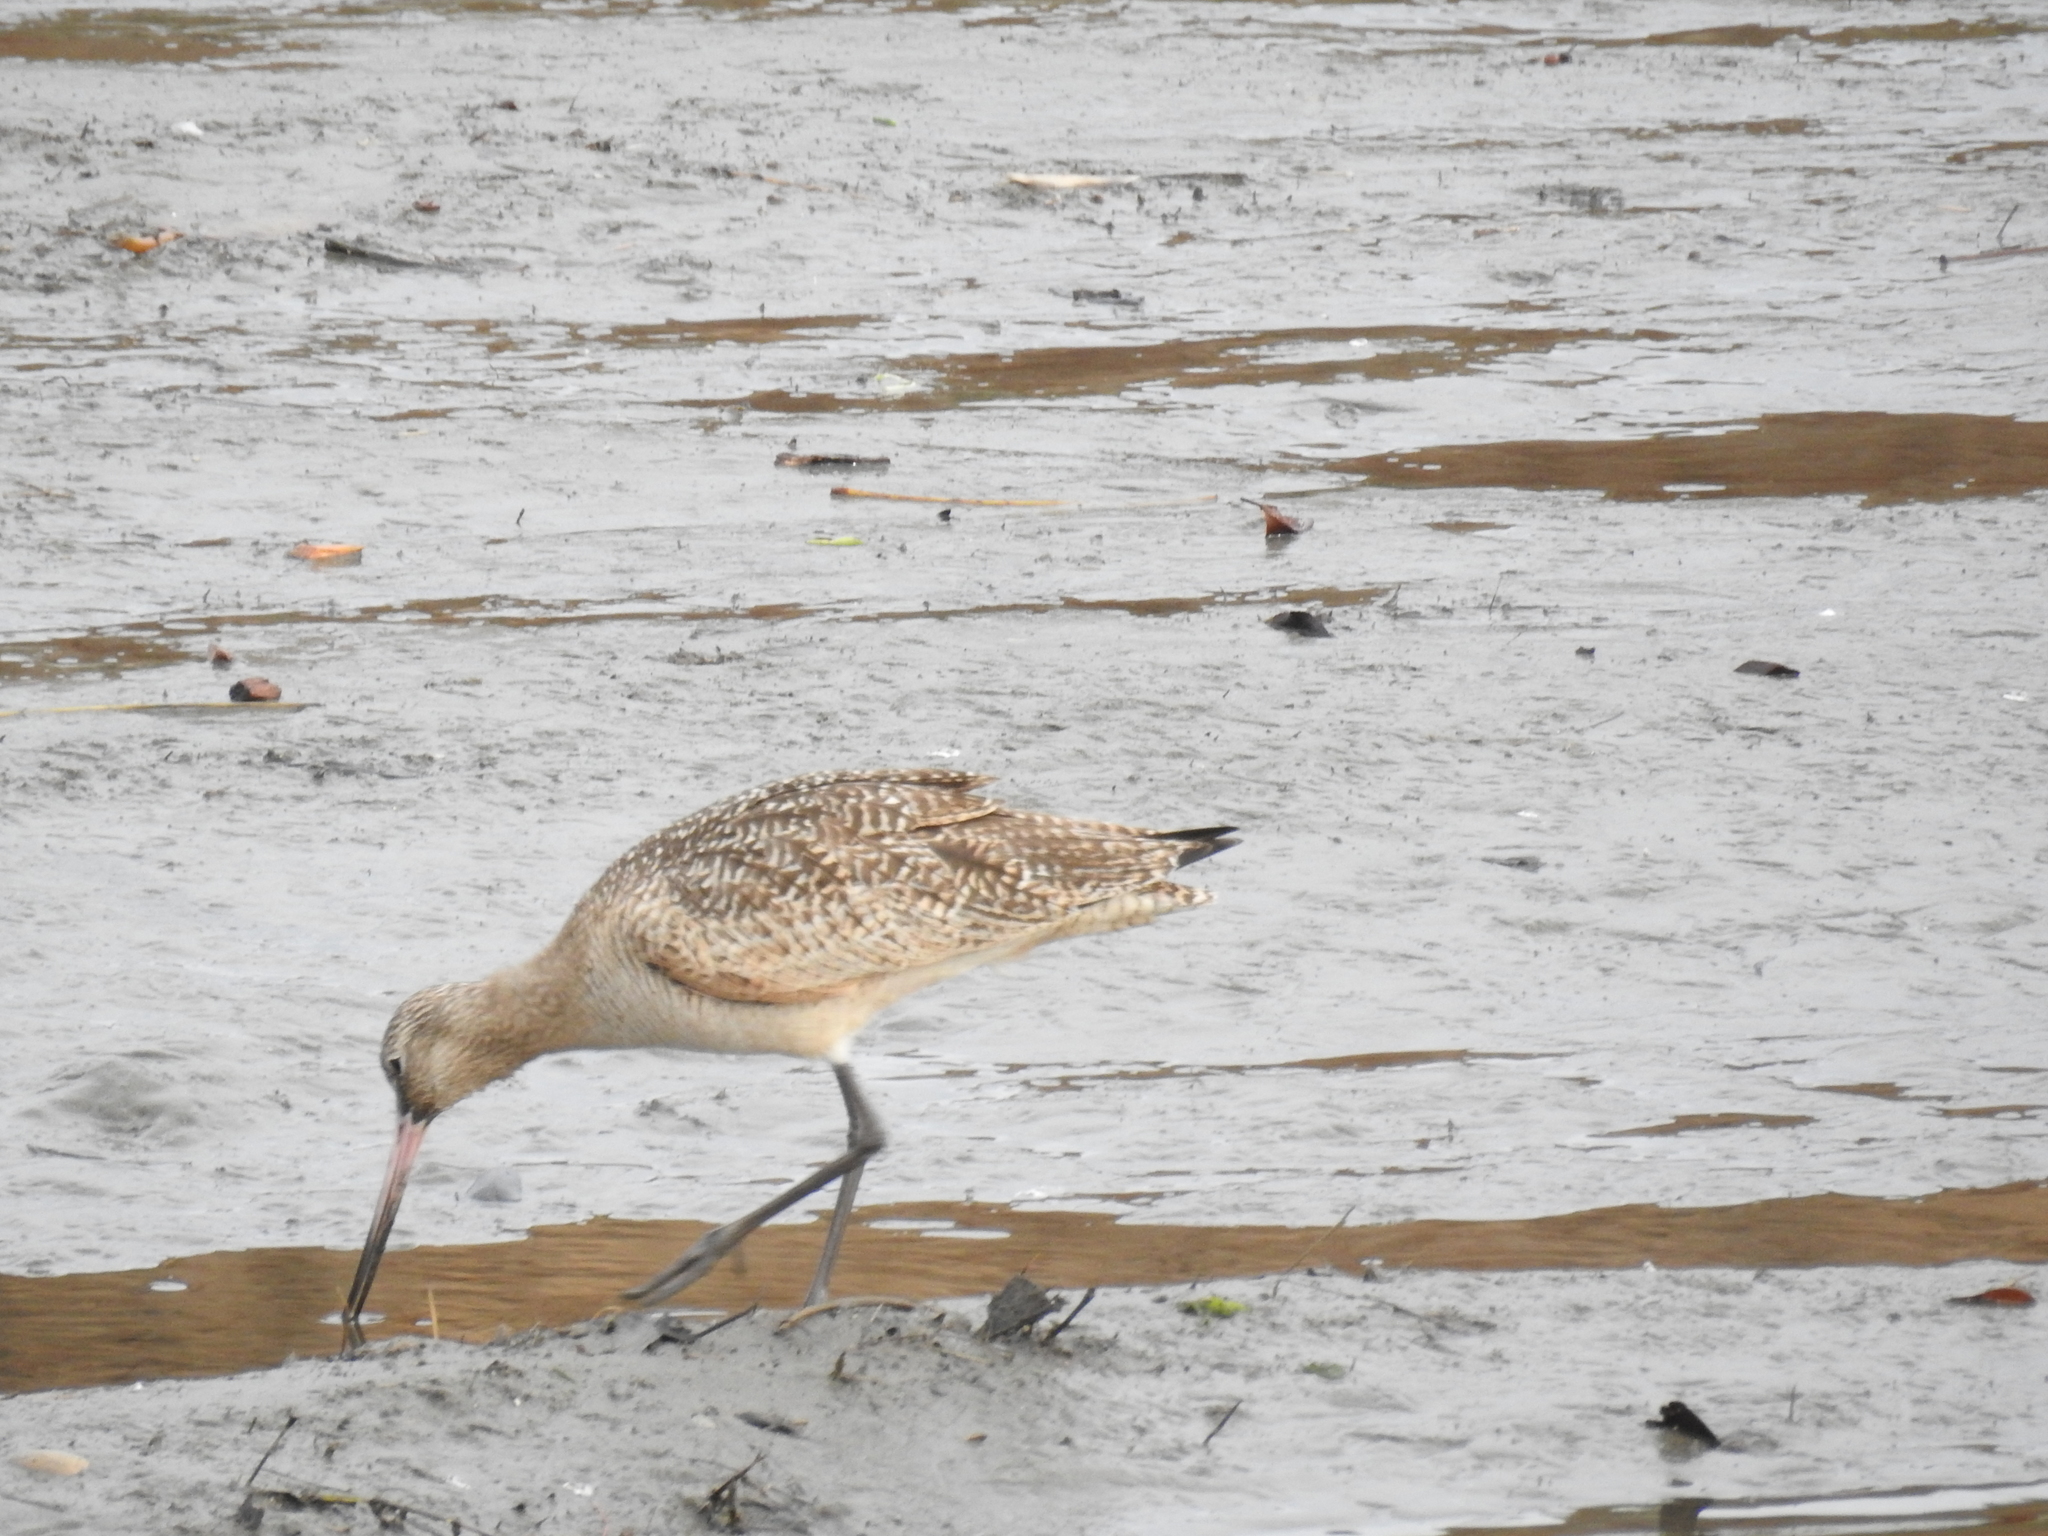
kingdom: Animalia
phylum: Chordata
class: Aves
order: Charadriiformes
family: Scolopacidae
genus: Limosa
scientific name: Limosa fedoa
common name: Marbled godwit
